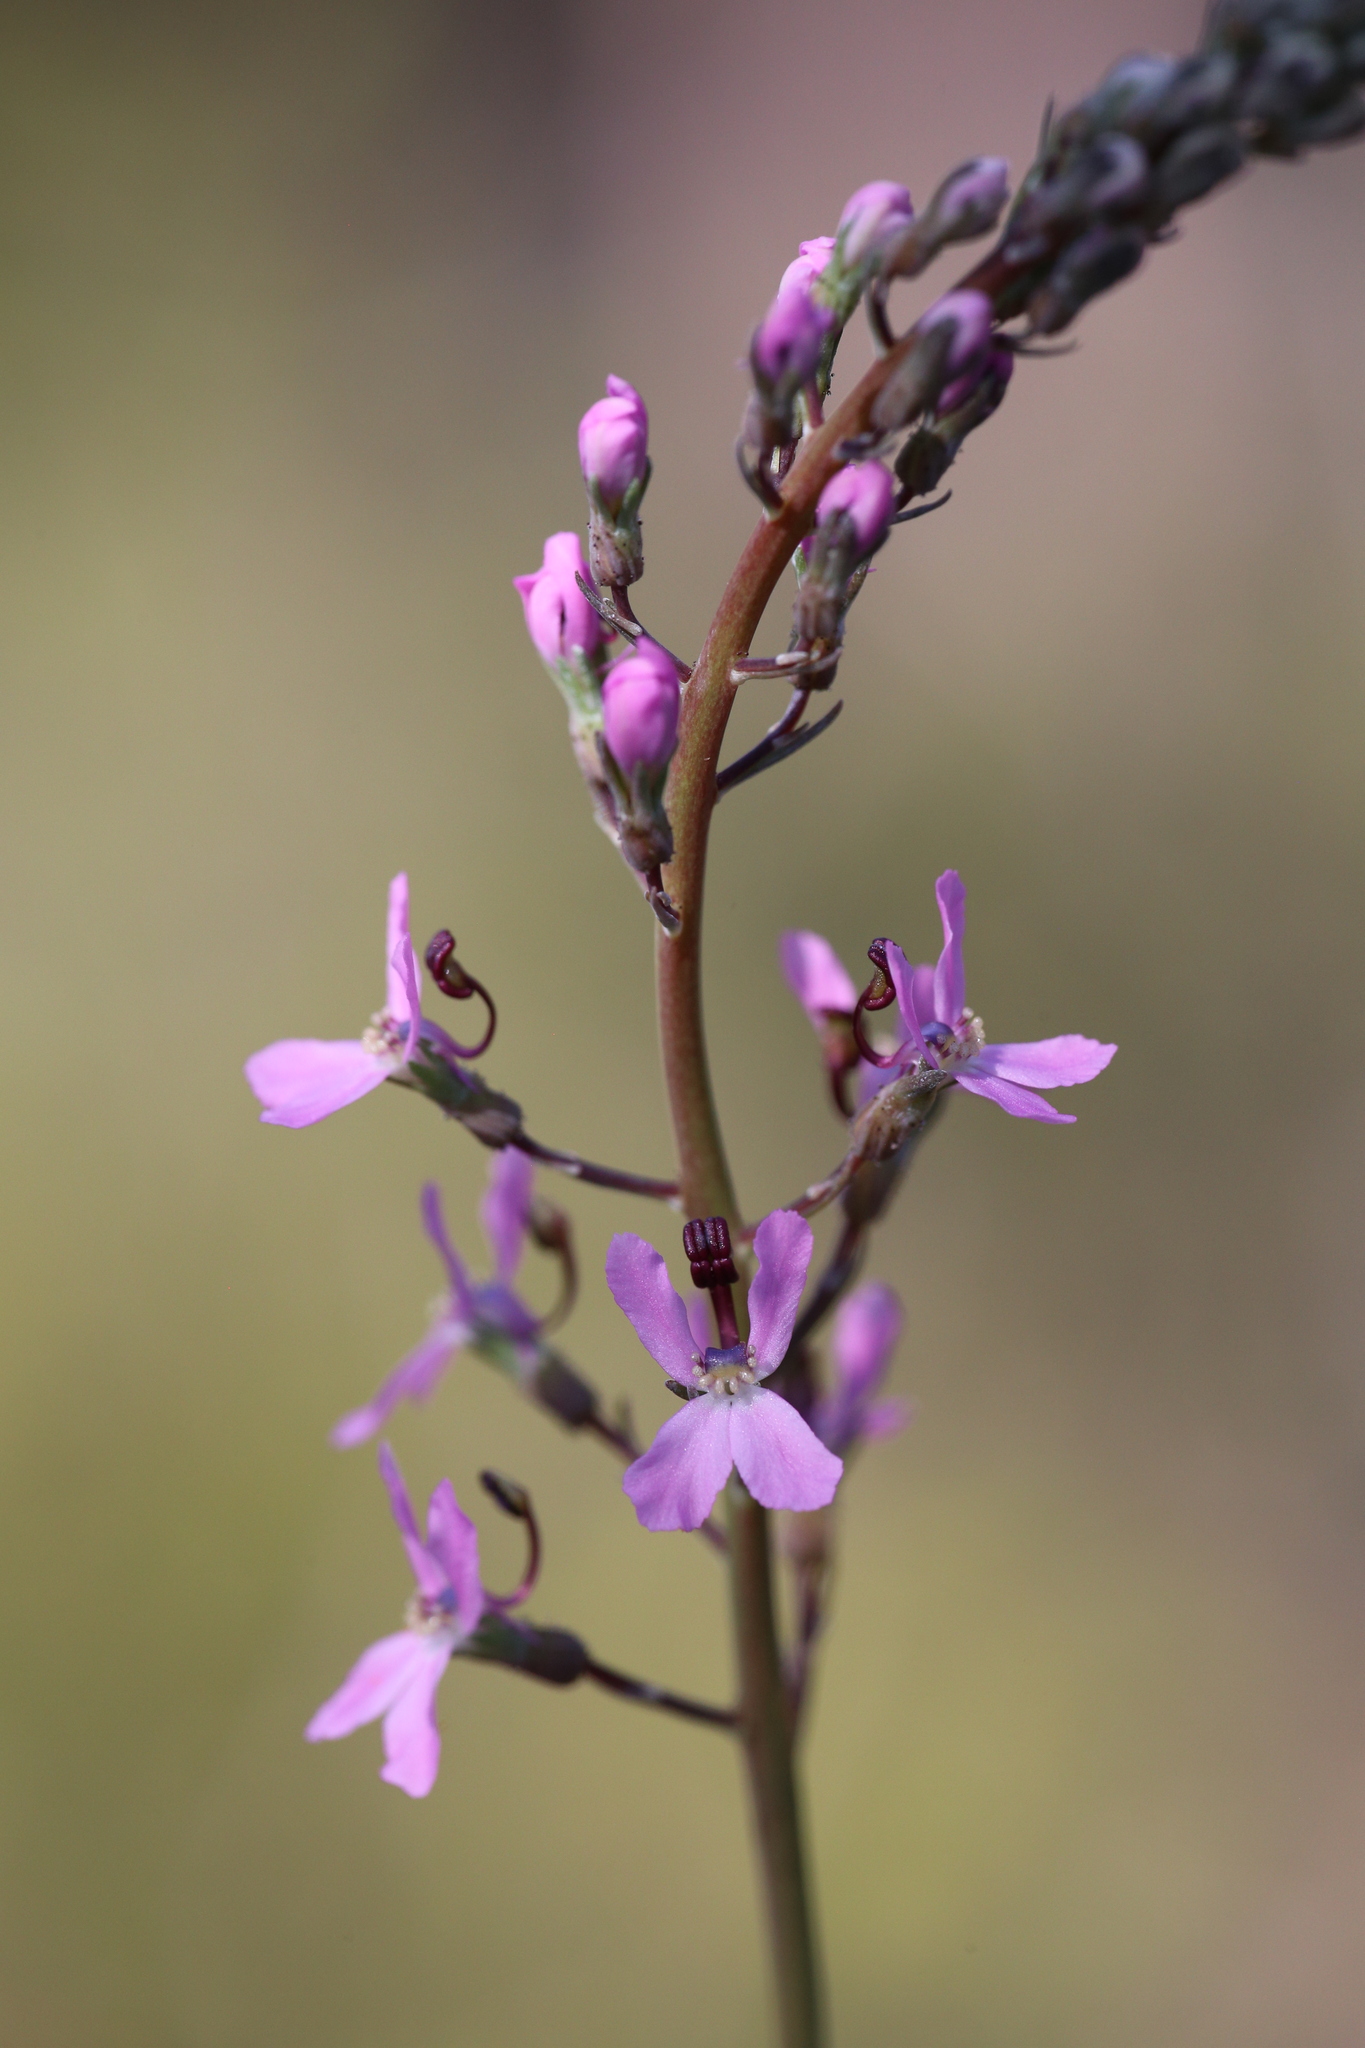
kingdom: Plantae
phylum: Tracheophyta
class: Magnoliopsida
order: Asterales
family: Stylidiaceae
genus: Stylidium
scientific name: Stylidium araeophyllum
